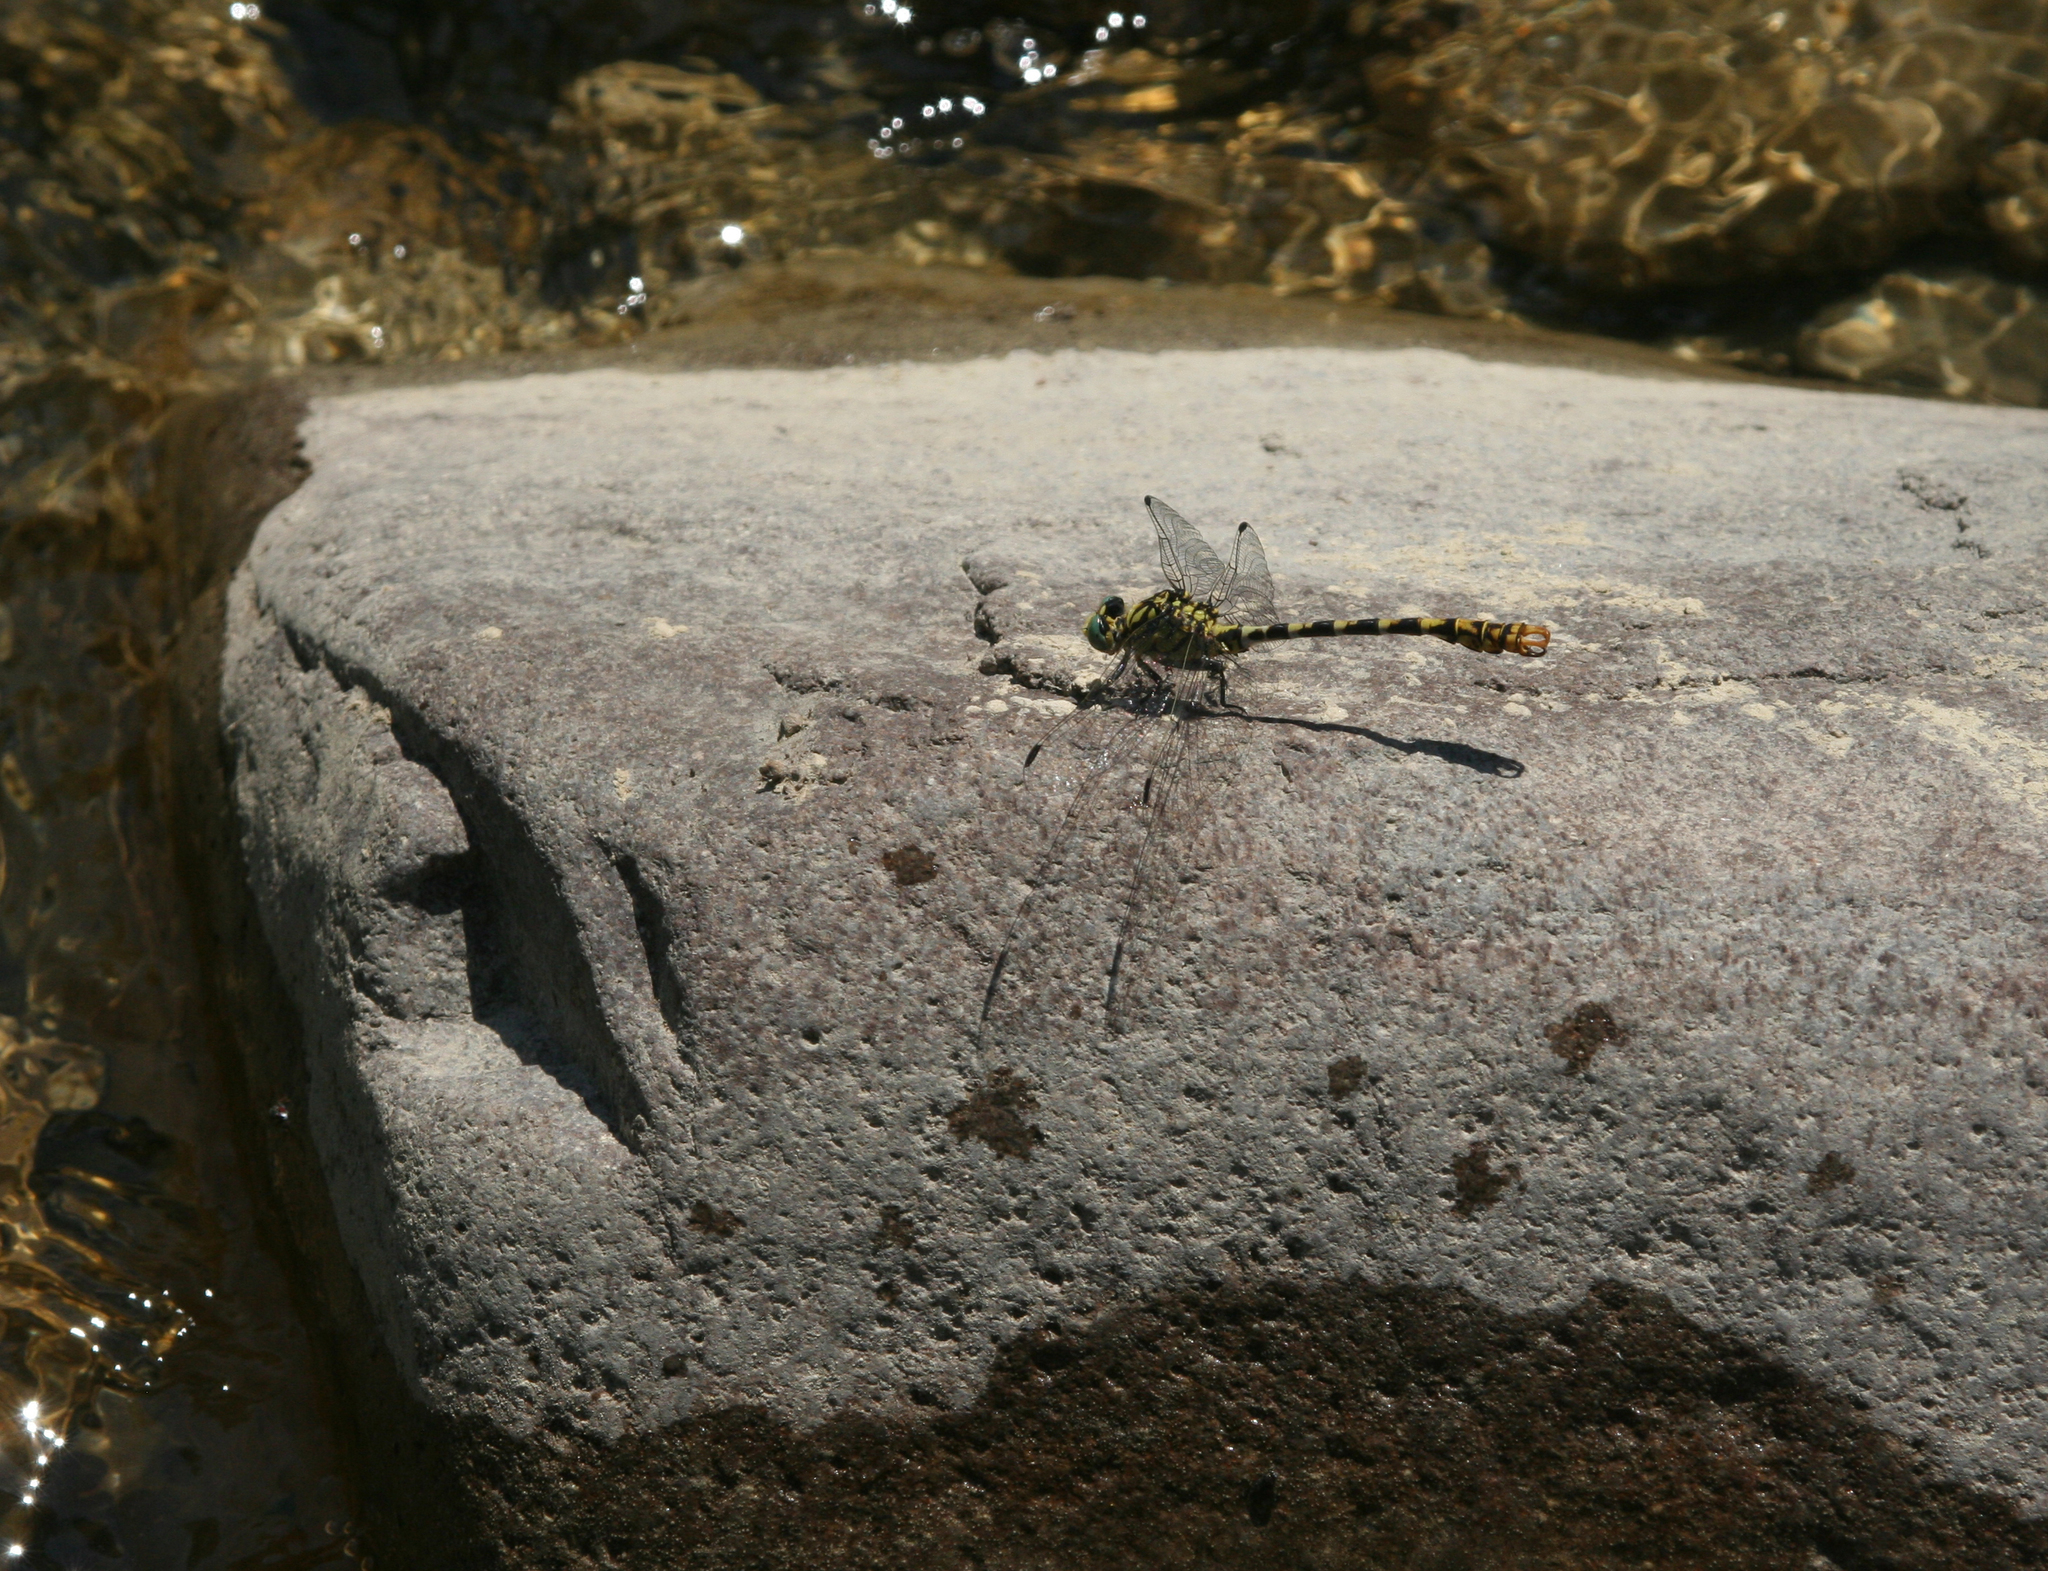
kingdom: Animalia
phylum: Arthropoda
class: Insecta
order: Odonata
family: Gomphidae
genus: Onychogomphus
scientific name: Onychogomphus forcipatus
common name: Small pincertail
